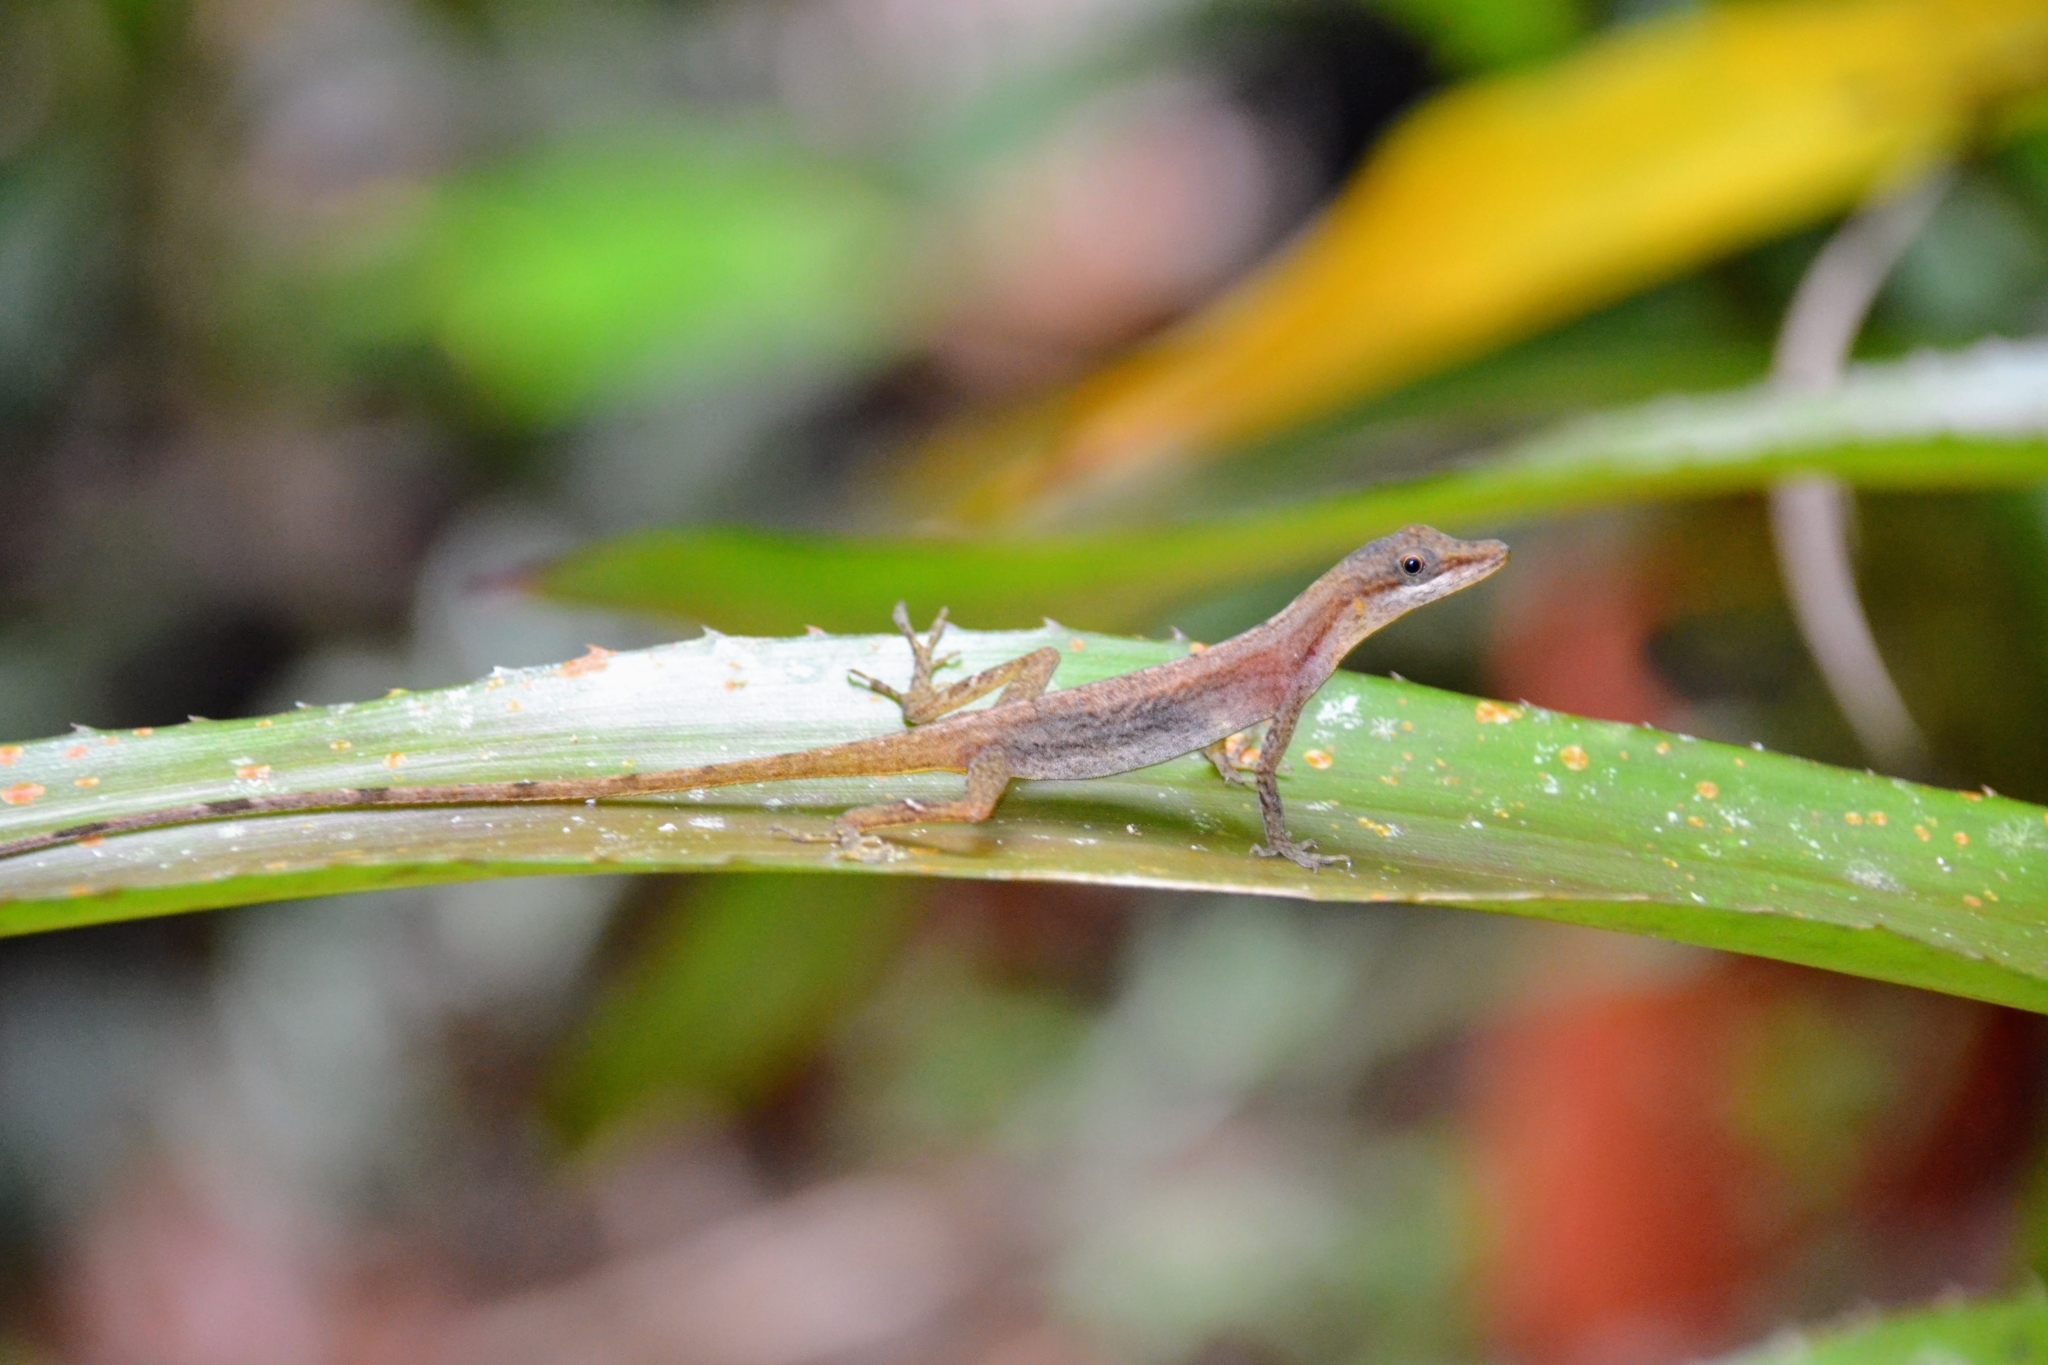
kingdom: Animalia
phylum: Chordata
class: Squamata
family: Dactyloidae
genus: Anolis
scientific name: Anolis limifrons
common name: Border anole
